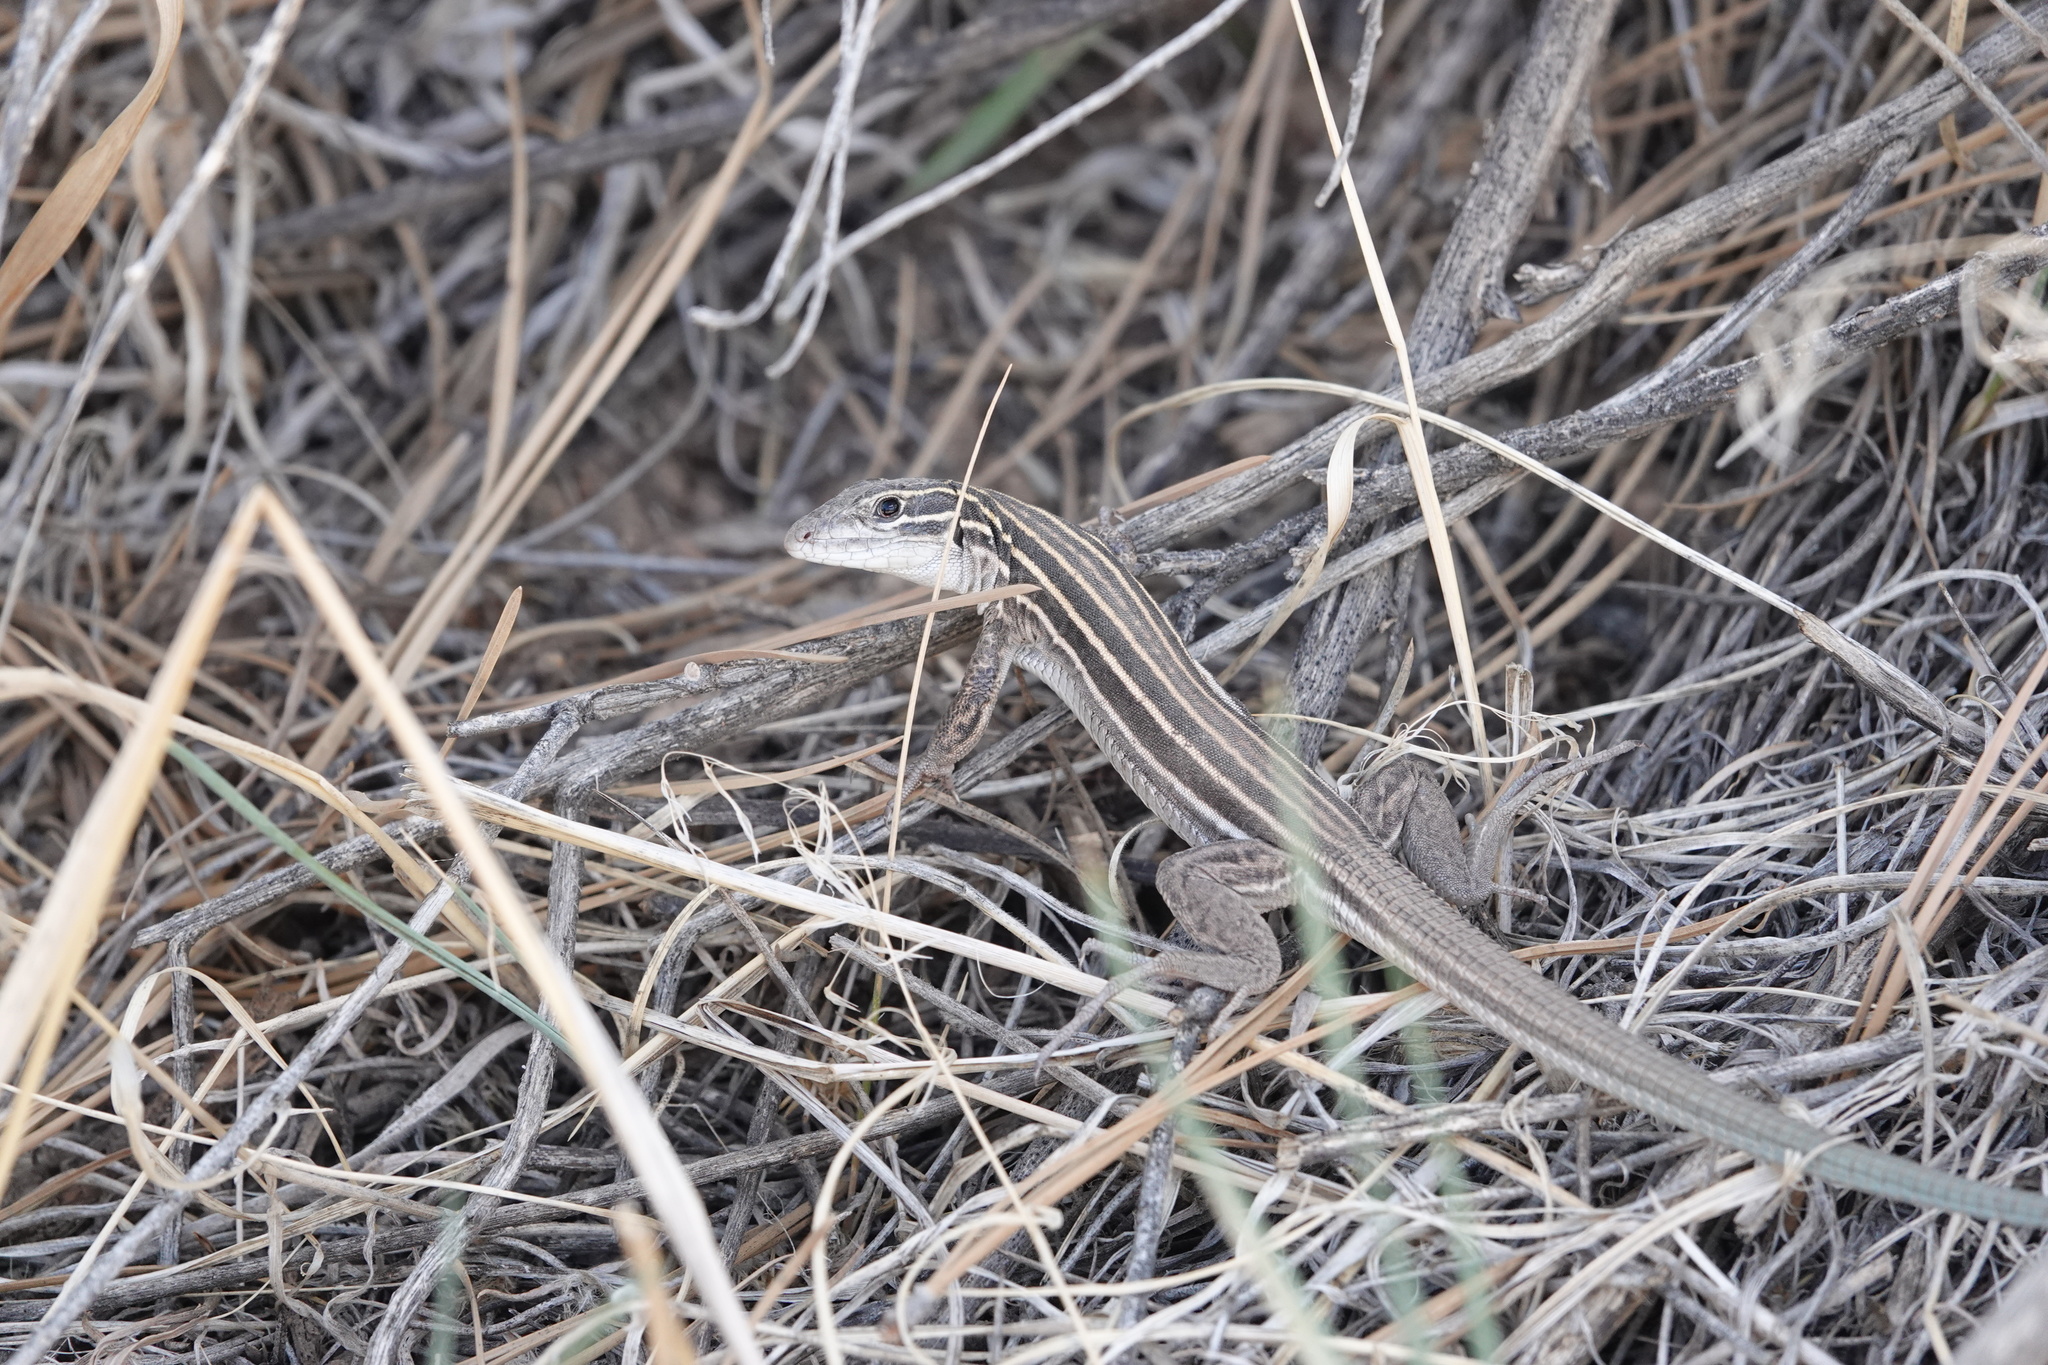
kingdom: Animalia
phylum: Chordata
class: Squamata
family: Teiidae
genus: Aspidoscelis
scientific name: Aspidoscelis velox
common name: Plateau striped whiptail
